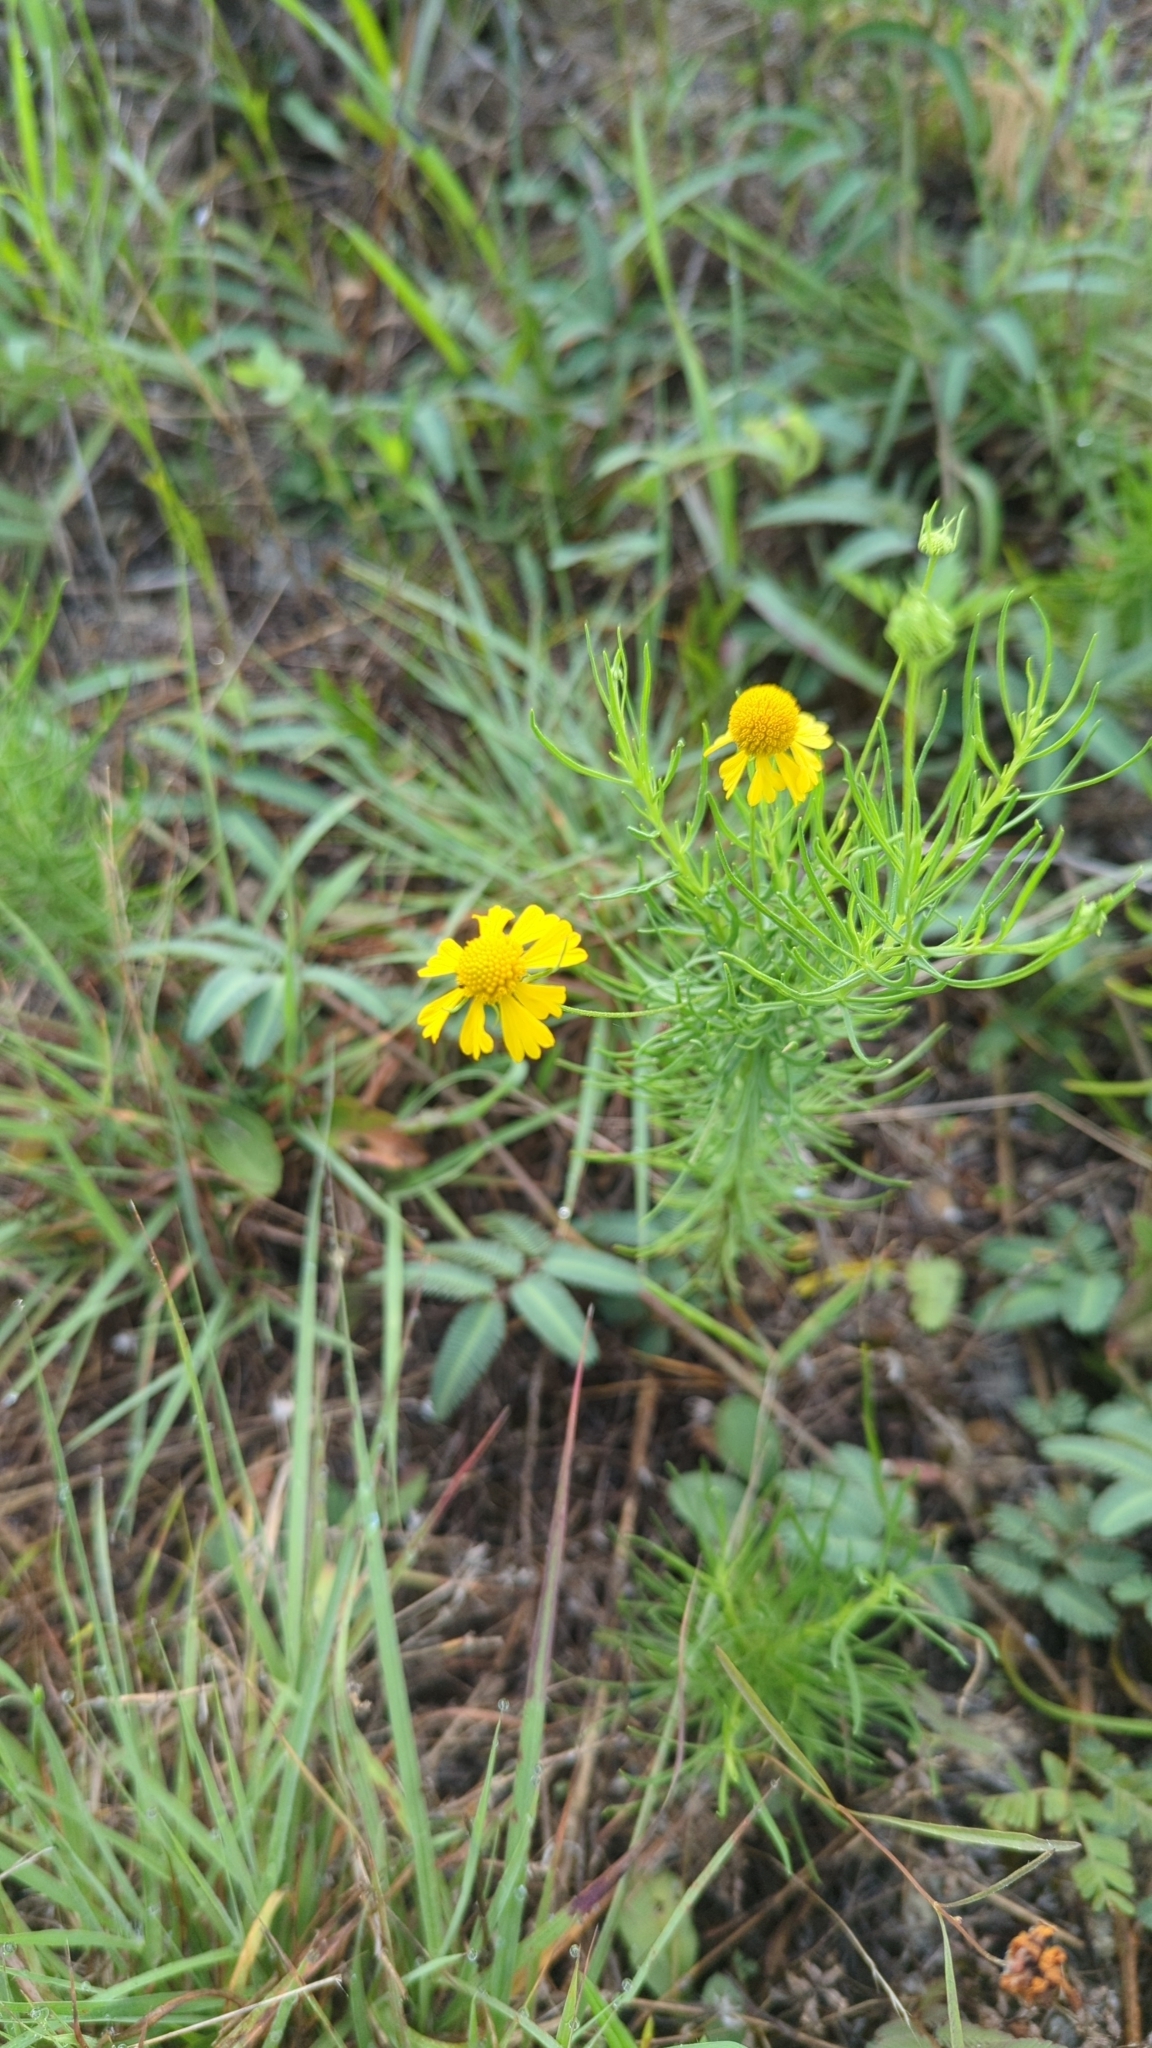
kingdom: Plantae
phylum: Tracheophyta
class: Magnoliopsida
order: Asterales
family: Asteraceae
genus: Helenium
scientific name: Helenium amarum
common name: Bitter sneezeweed
